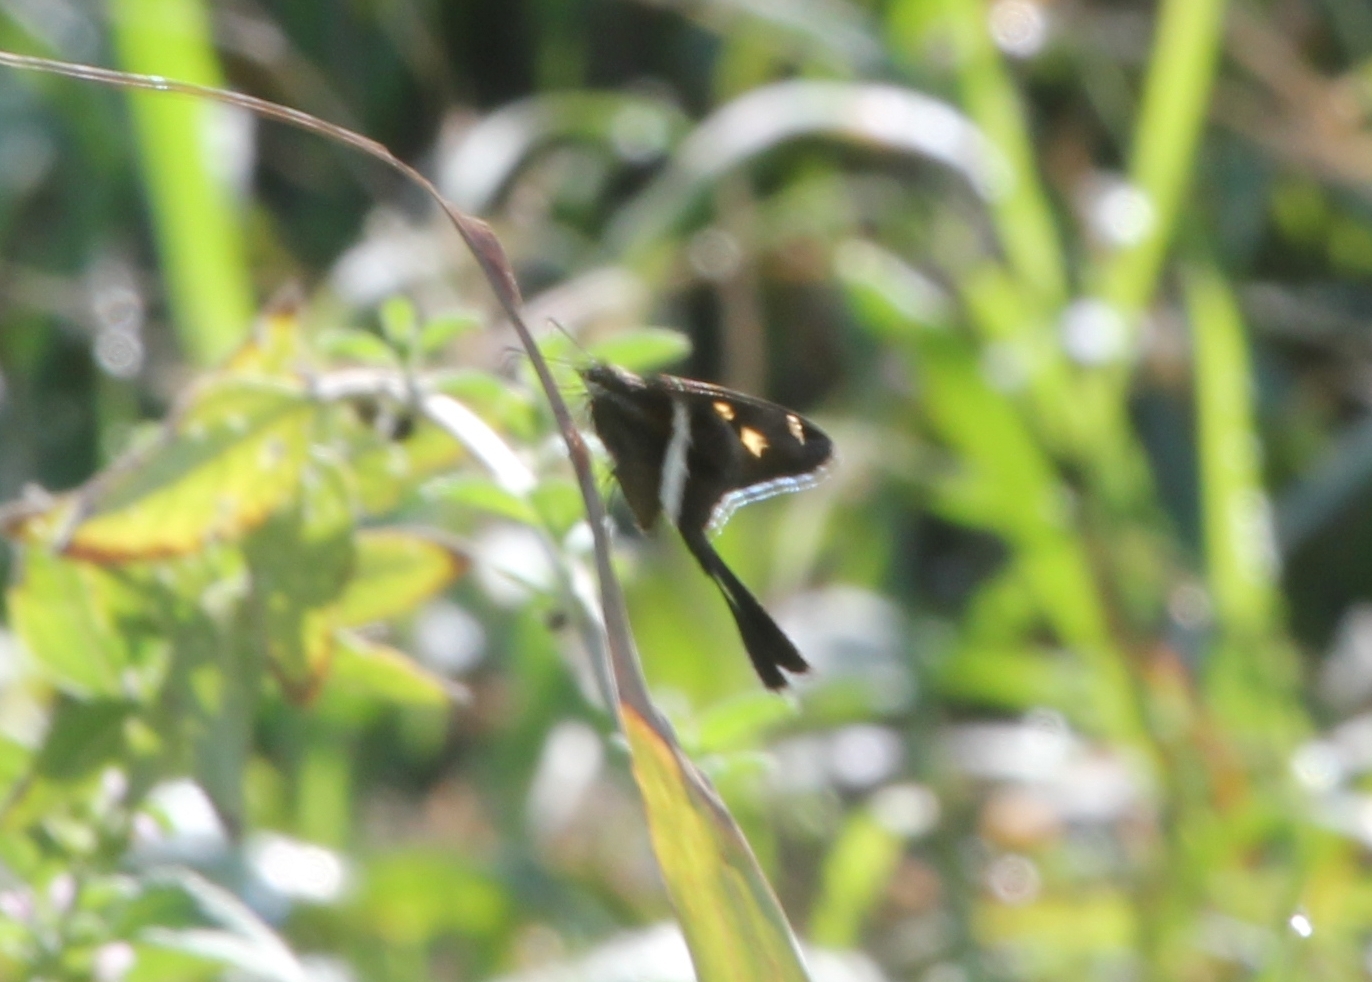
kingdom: Animalia
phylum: Arthropoda
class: Insecta
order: Lepidoptera
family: Hesperiidae
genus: Chioides
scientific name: Chioides catillus
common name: Silverbanded skipper
